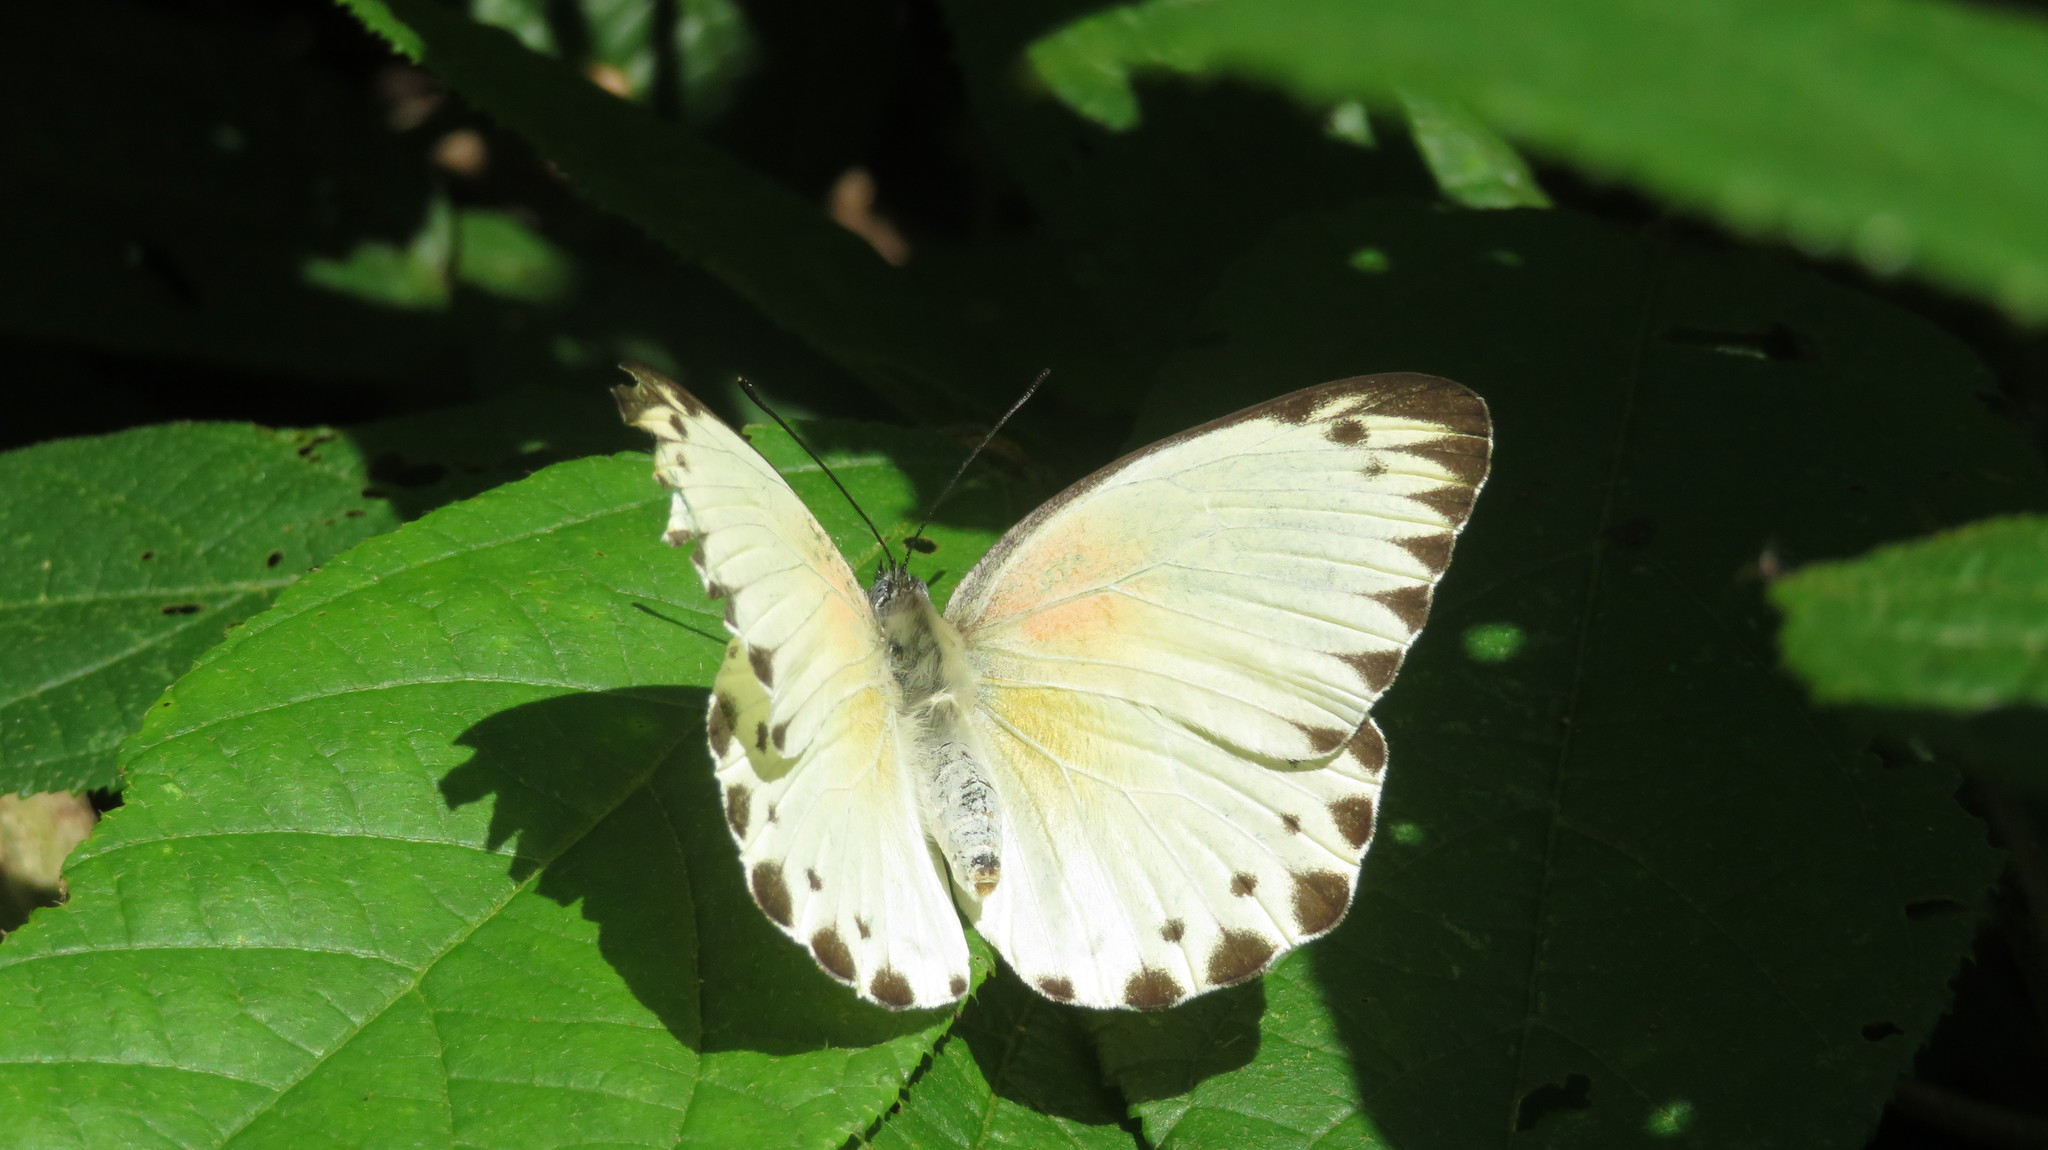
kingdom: Animalia
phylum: Arthropoda
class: Insecta
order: Lepidoptera
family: Pieridae
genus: Belenois
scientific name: Belenois thysa
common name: False dotted border
